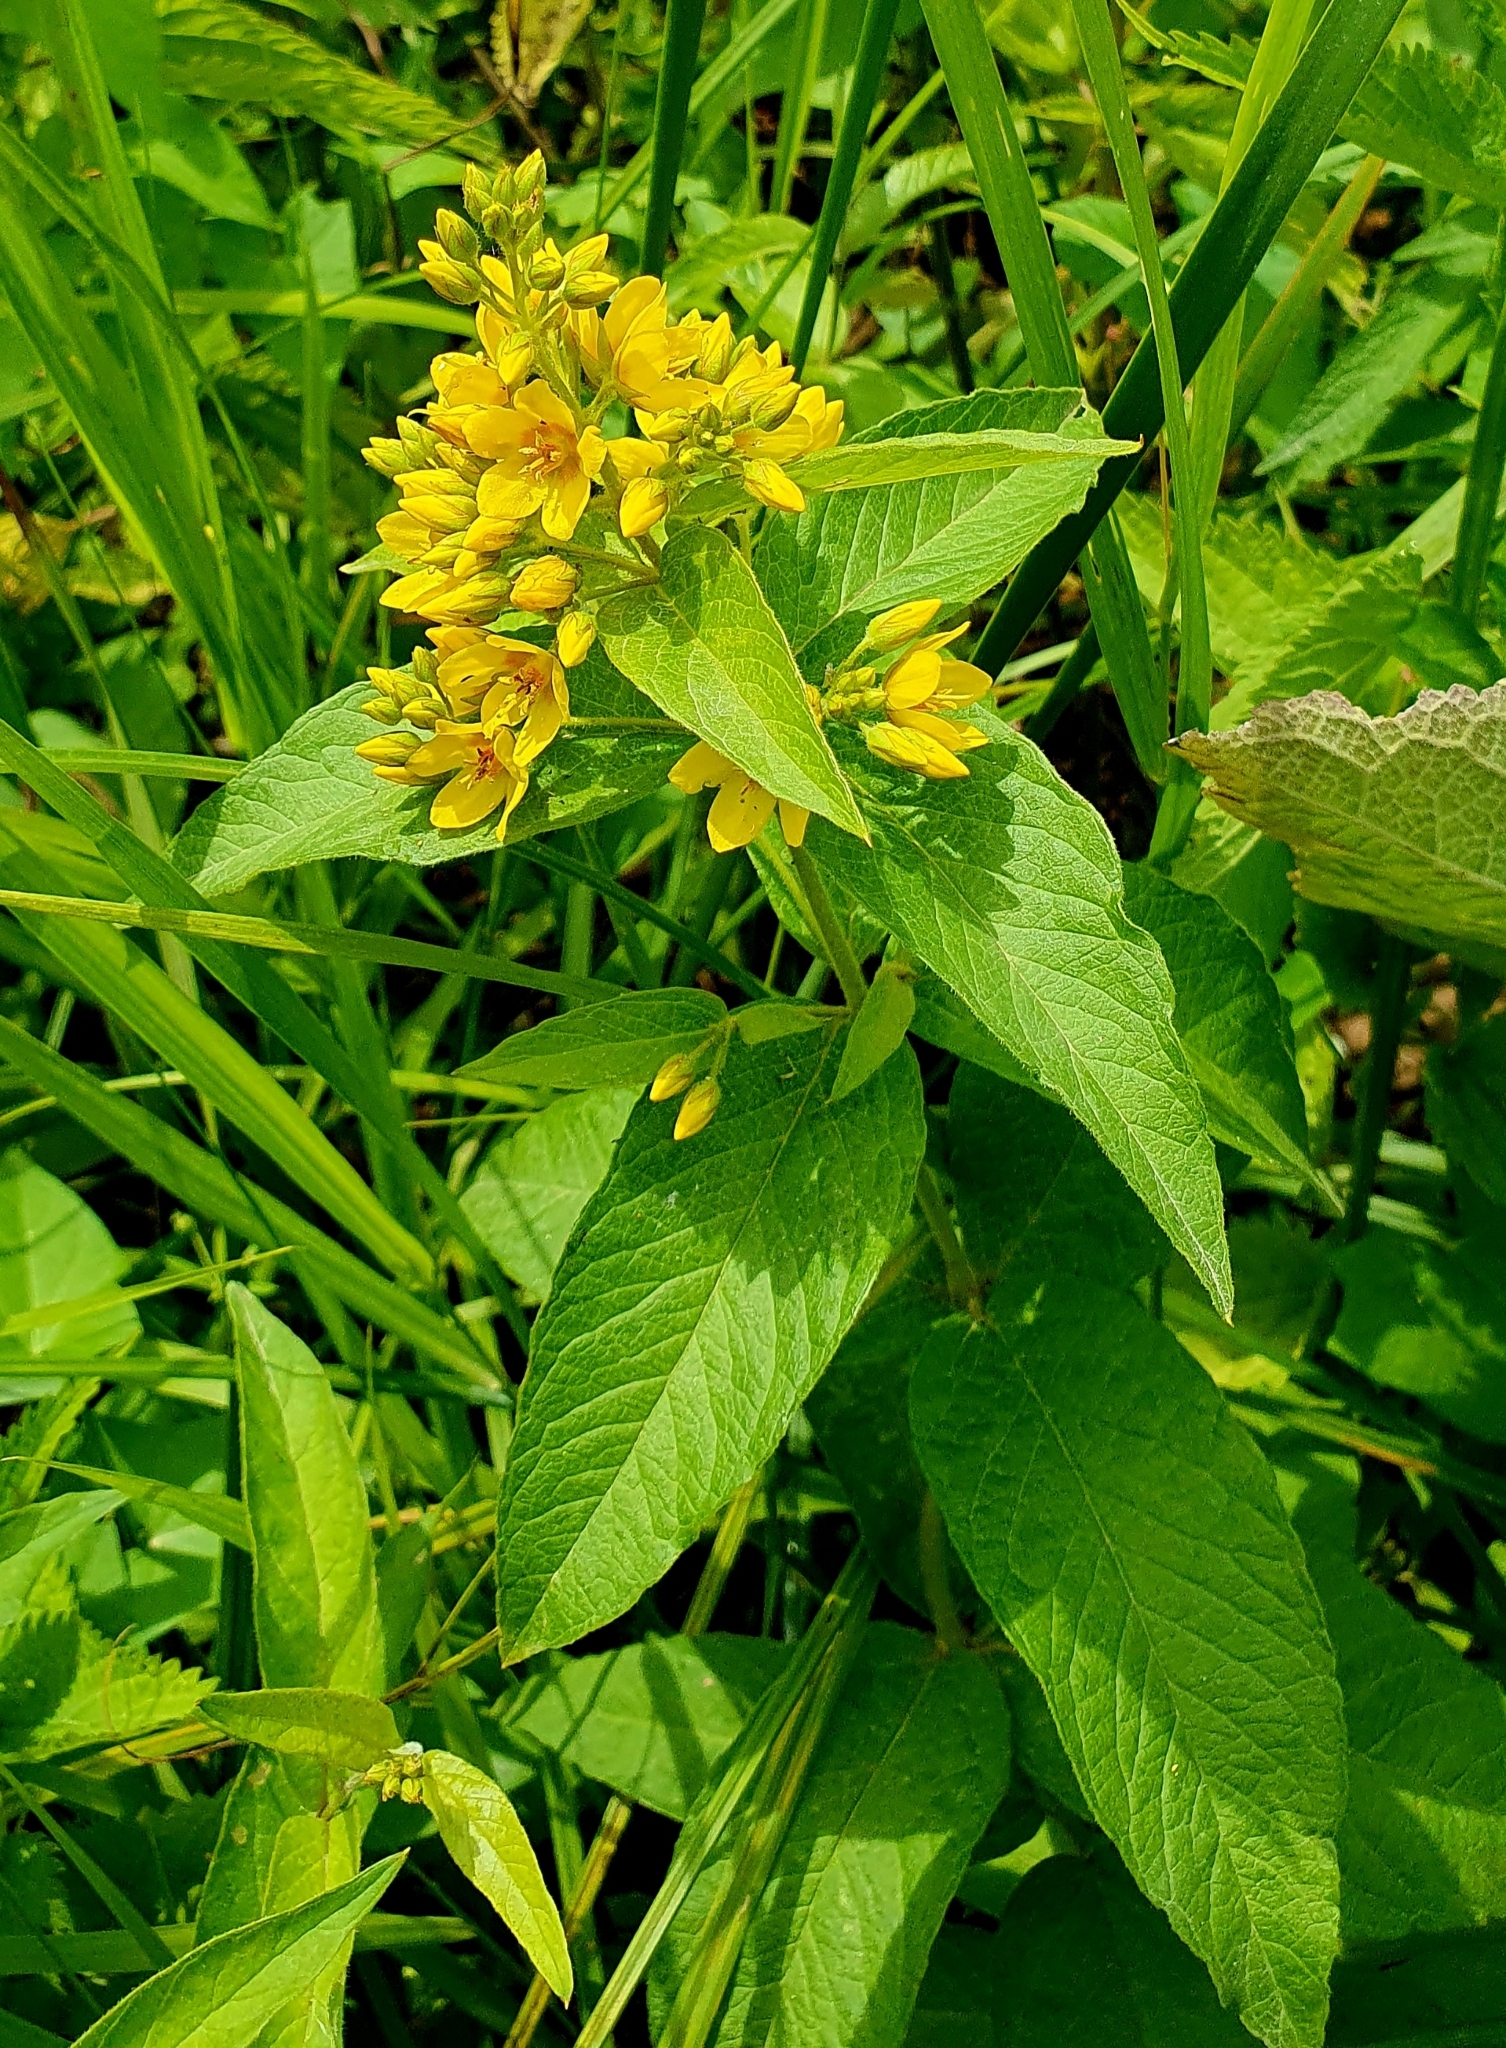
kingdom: Plantae
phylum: Tracheophyta
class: Magnoliopsida
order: Ericales
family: Primulaceae
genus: Lysimachia
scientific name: Lysimachia vulgaris
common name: Yellow loosestrife
